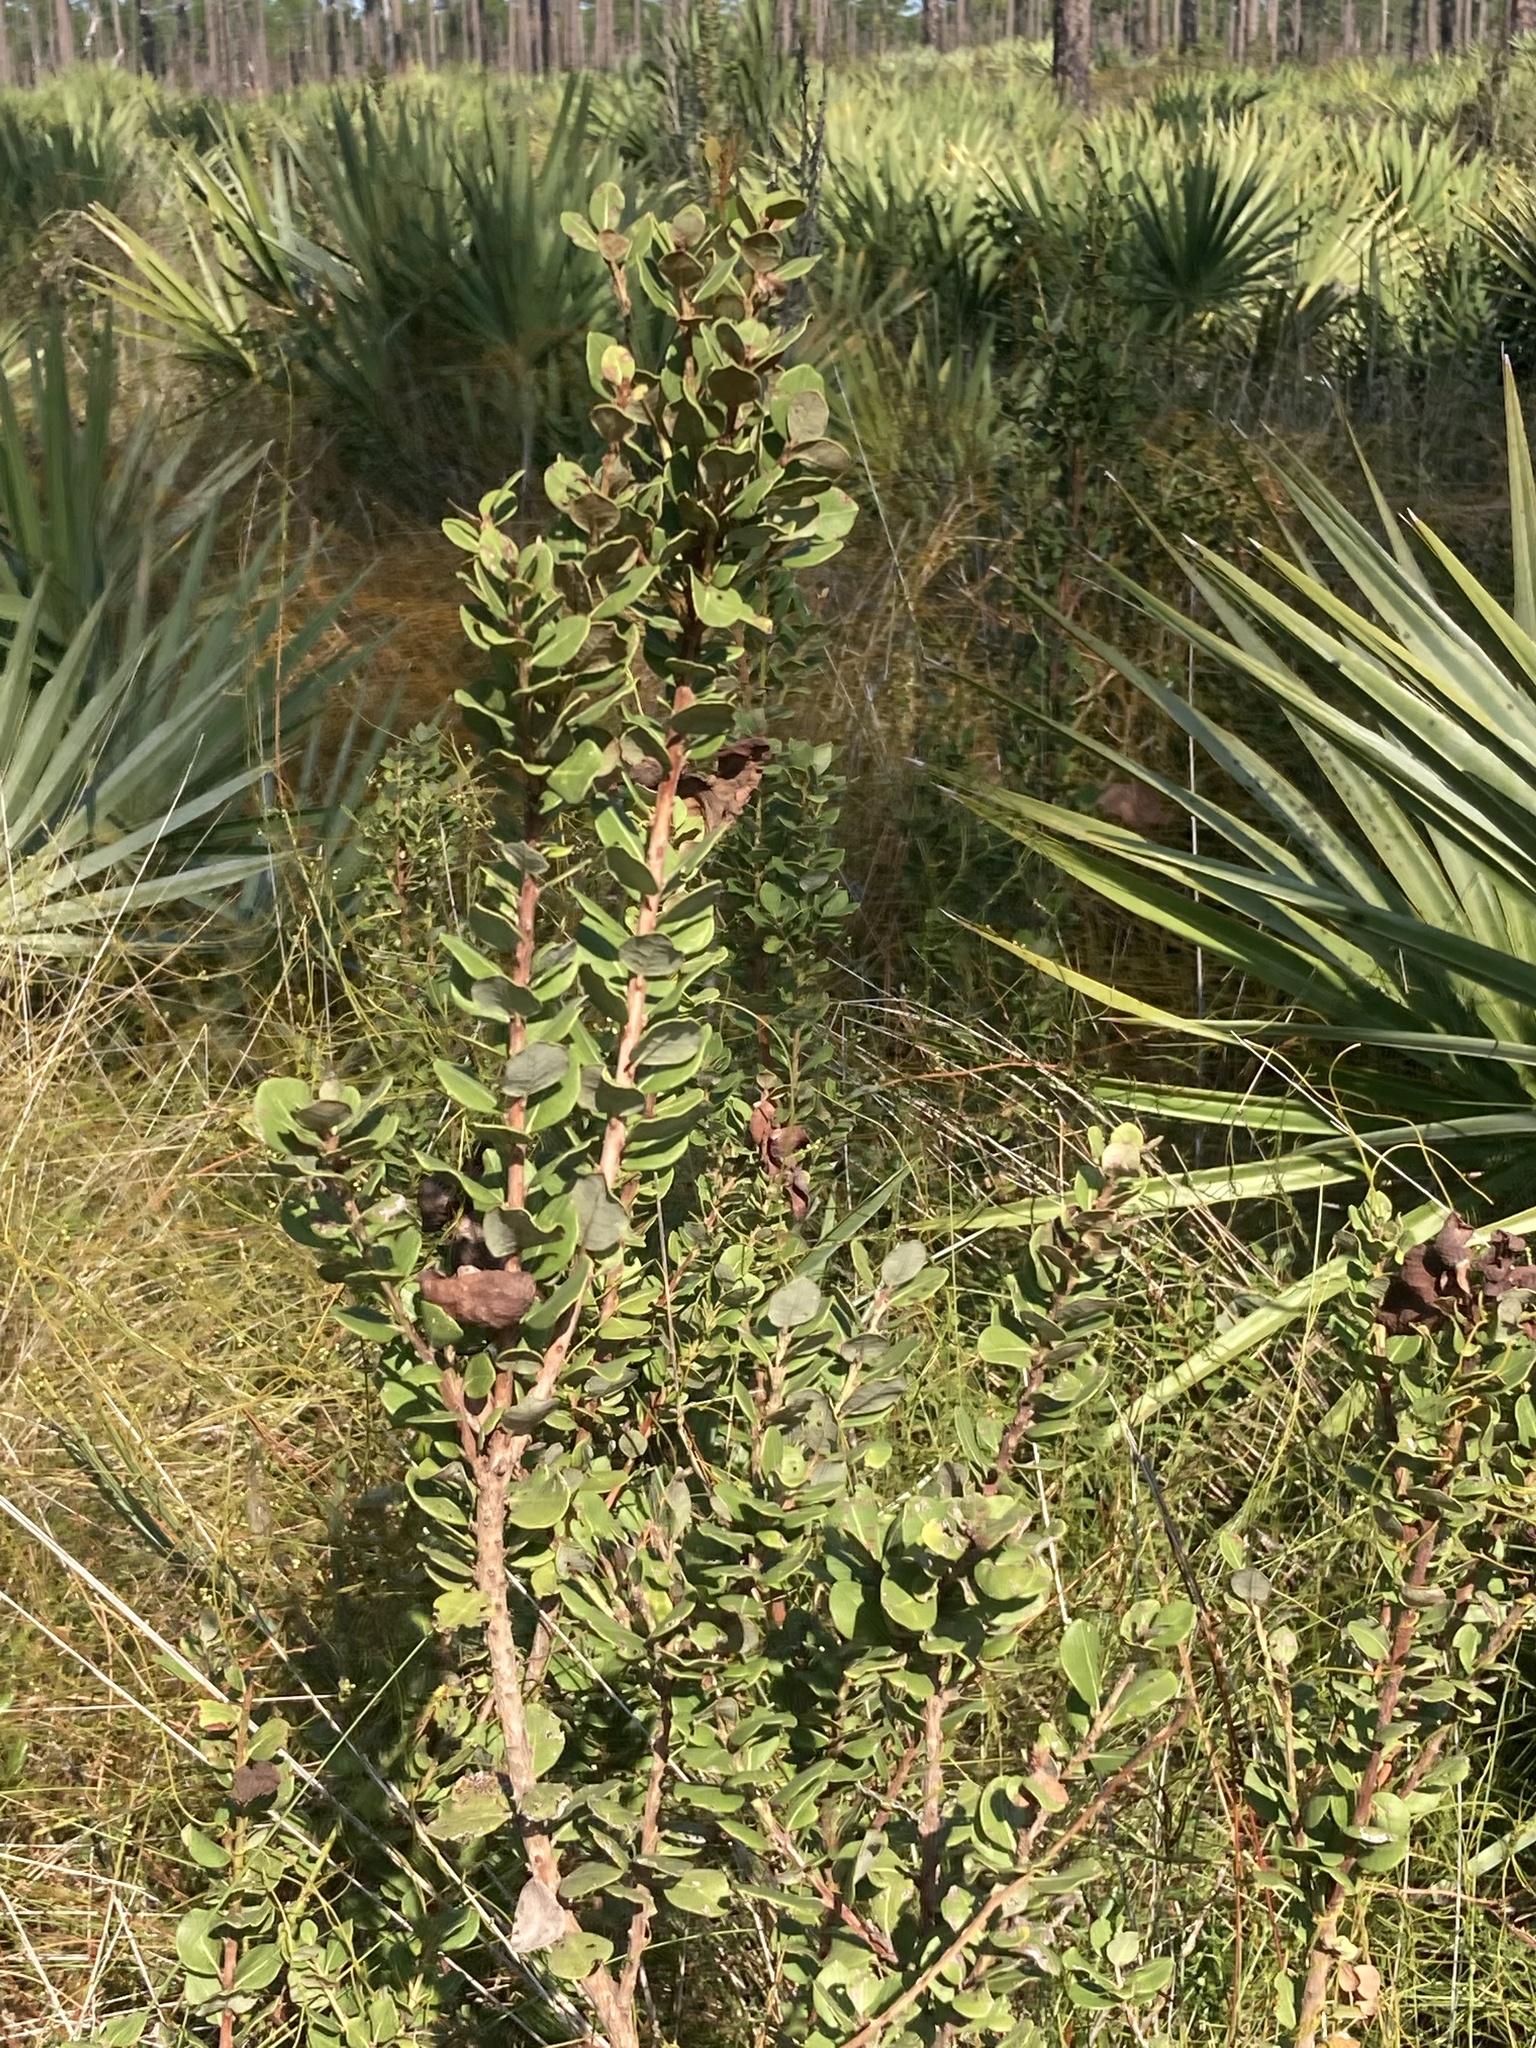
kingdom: Plantae
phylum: Tracheophyta
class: Magnoliopsida
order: Ericales
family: Ericaceae
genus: Lyonia
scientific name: Lyonia fruticosa
